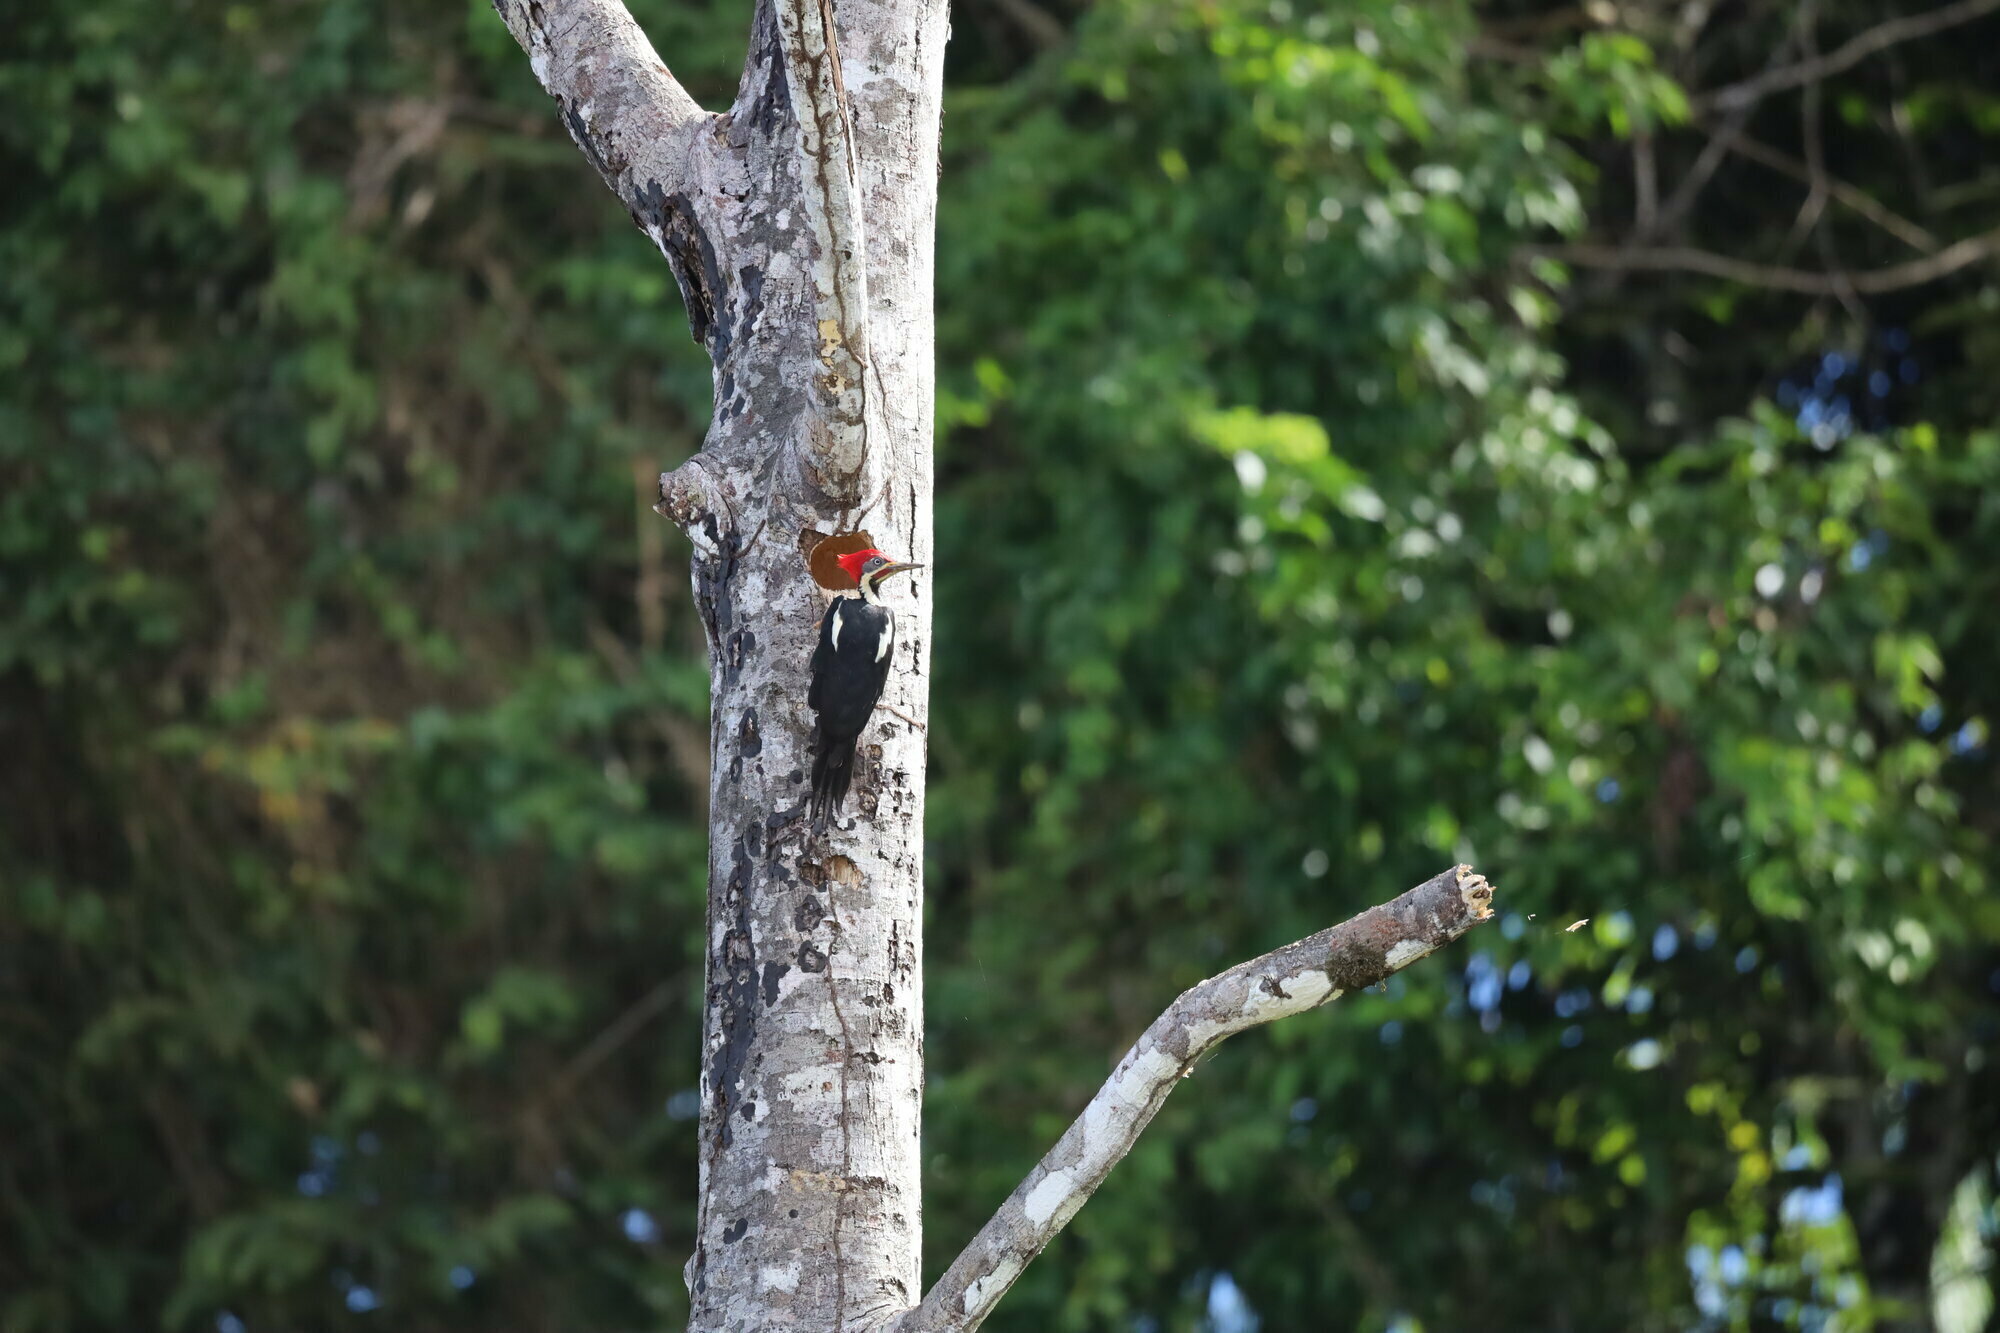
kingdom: Animalia
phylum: Chordata
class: Aves
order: Piciformes
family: Picidae
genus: Dryocopus
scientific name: Dryocopus lineatus
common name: Lineated woodpecker
